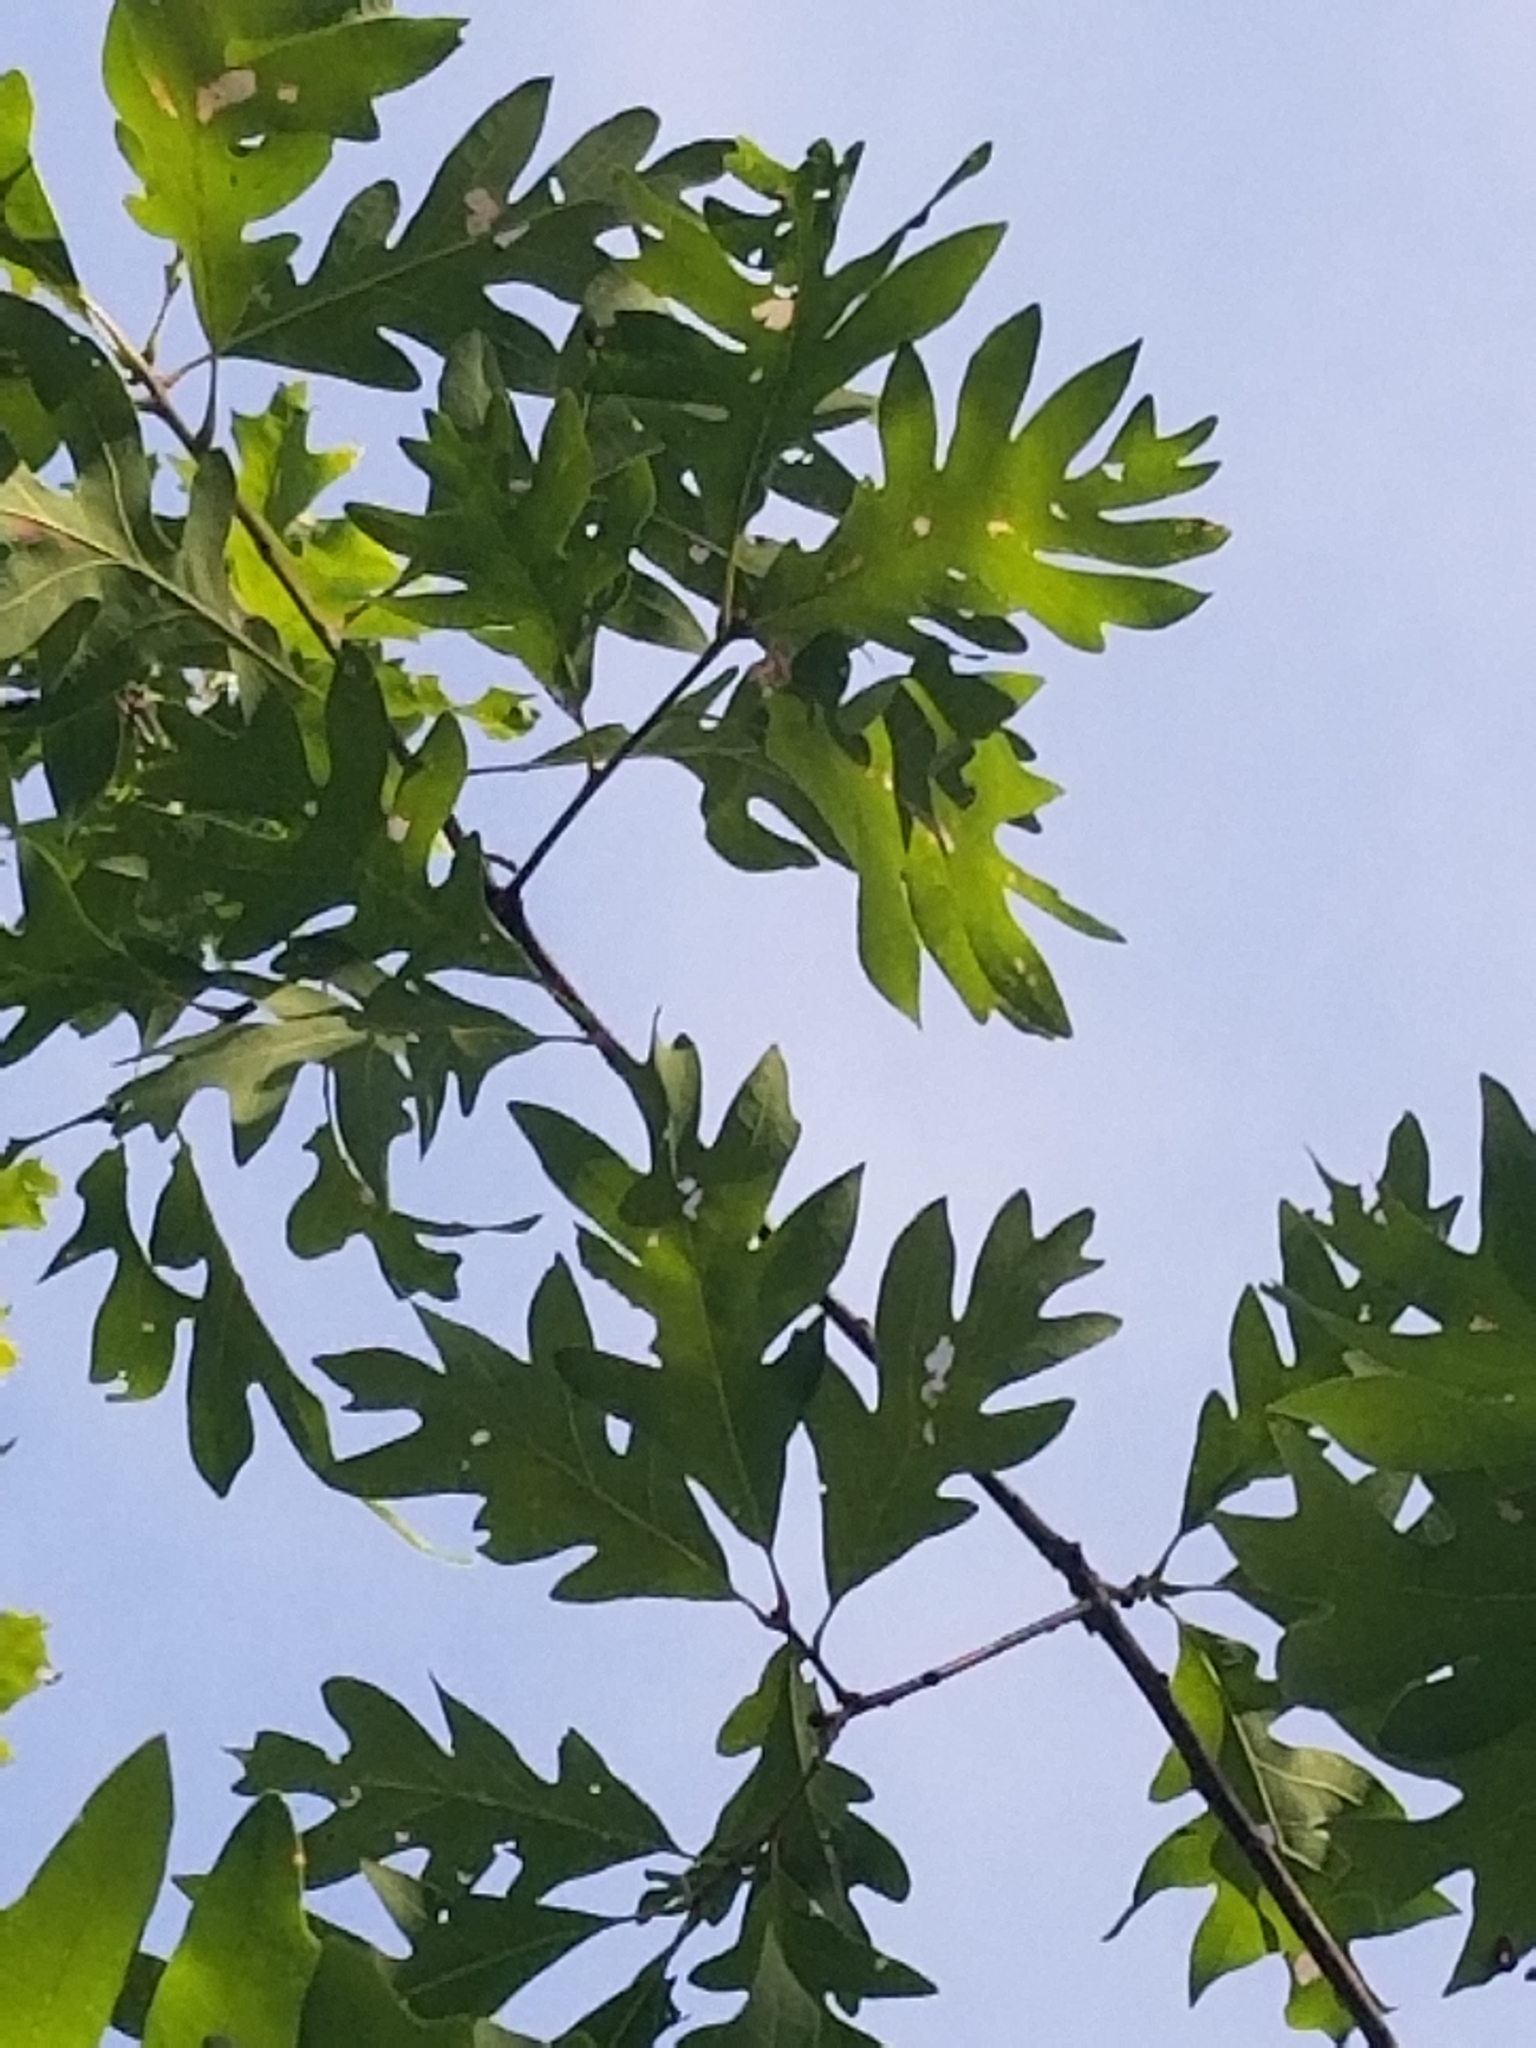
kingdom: Plantae
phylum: Tracheophyta
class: Magnoliopsida
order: Fagales
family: Fagaceae
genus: Quercus
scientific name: Quercus alba
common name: White oak
